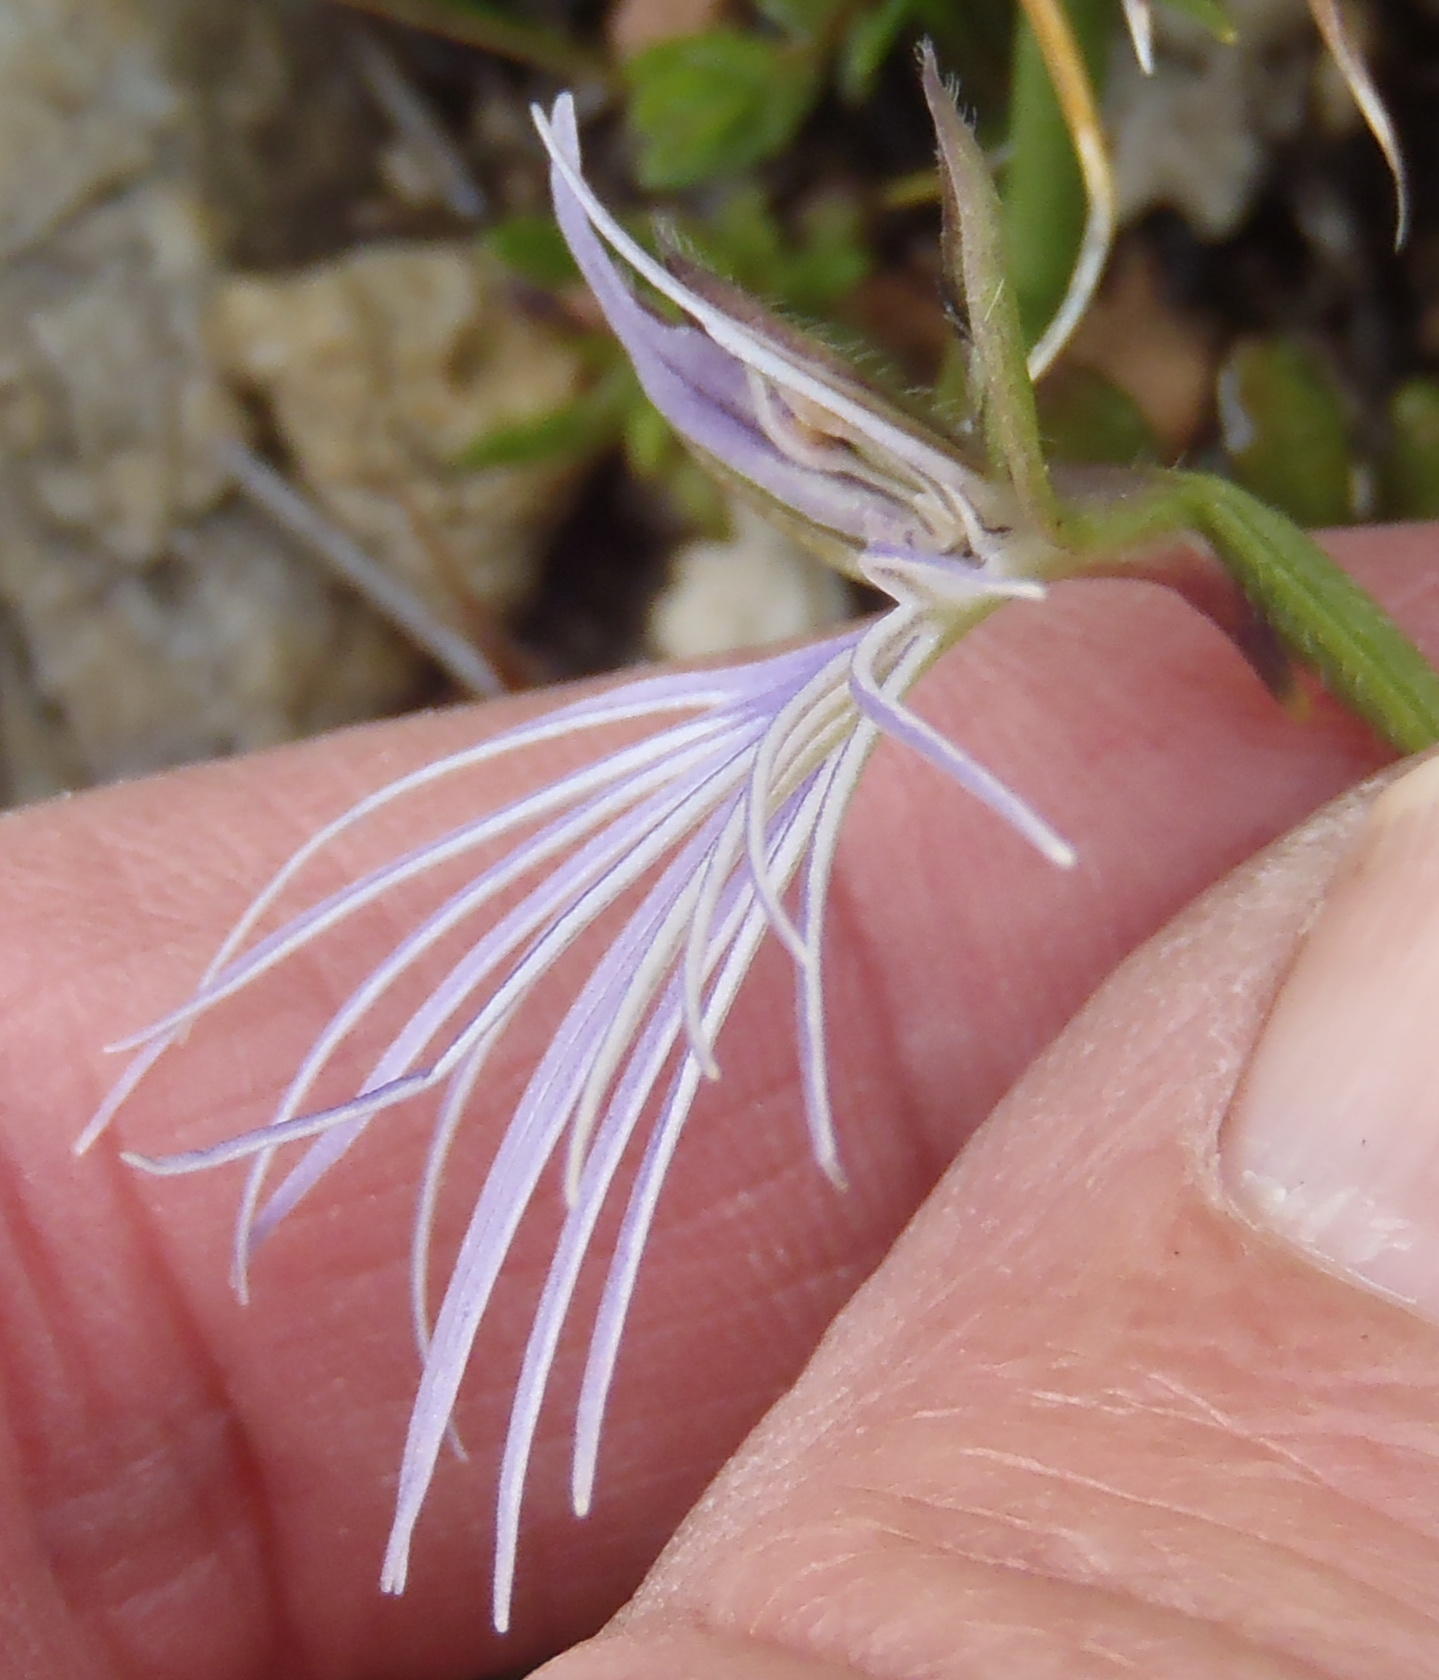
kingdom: Plantae
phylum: Tracheophyta
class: Liliopsida
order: Asparagales
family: Orchidaceae
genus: Holothrix
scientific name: Holothrix burmanniana
